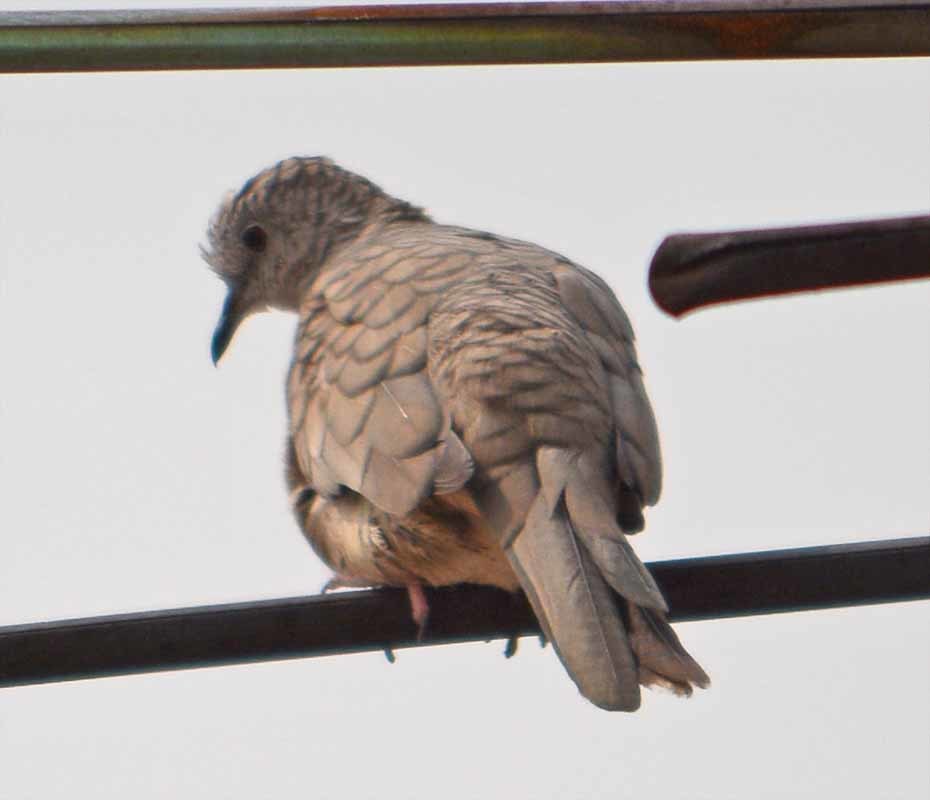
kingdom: Animalia
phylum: Chordata
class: Aves
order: Columbiformes
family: Columbidae
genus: Columbina
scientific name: Columbina inca
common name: Inca dove
